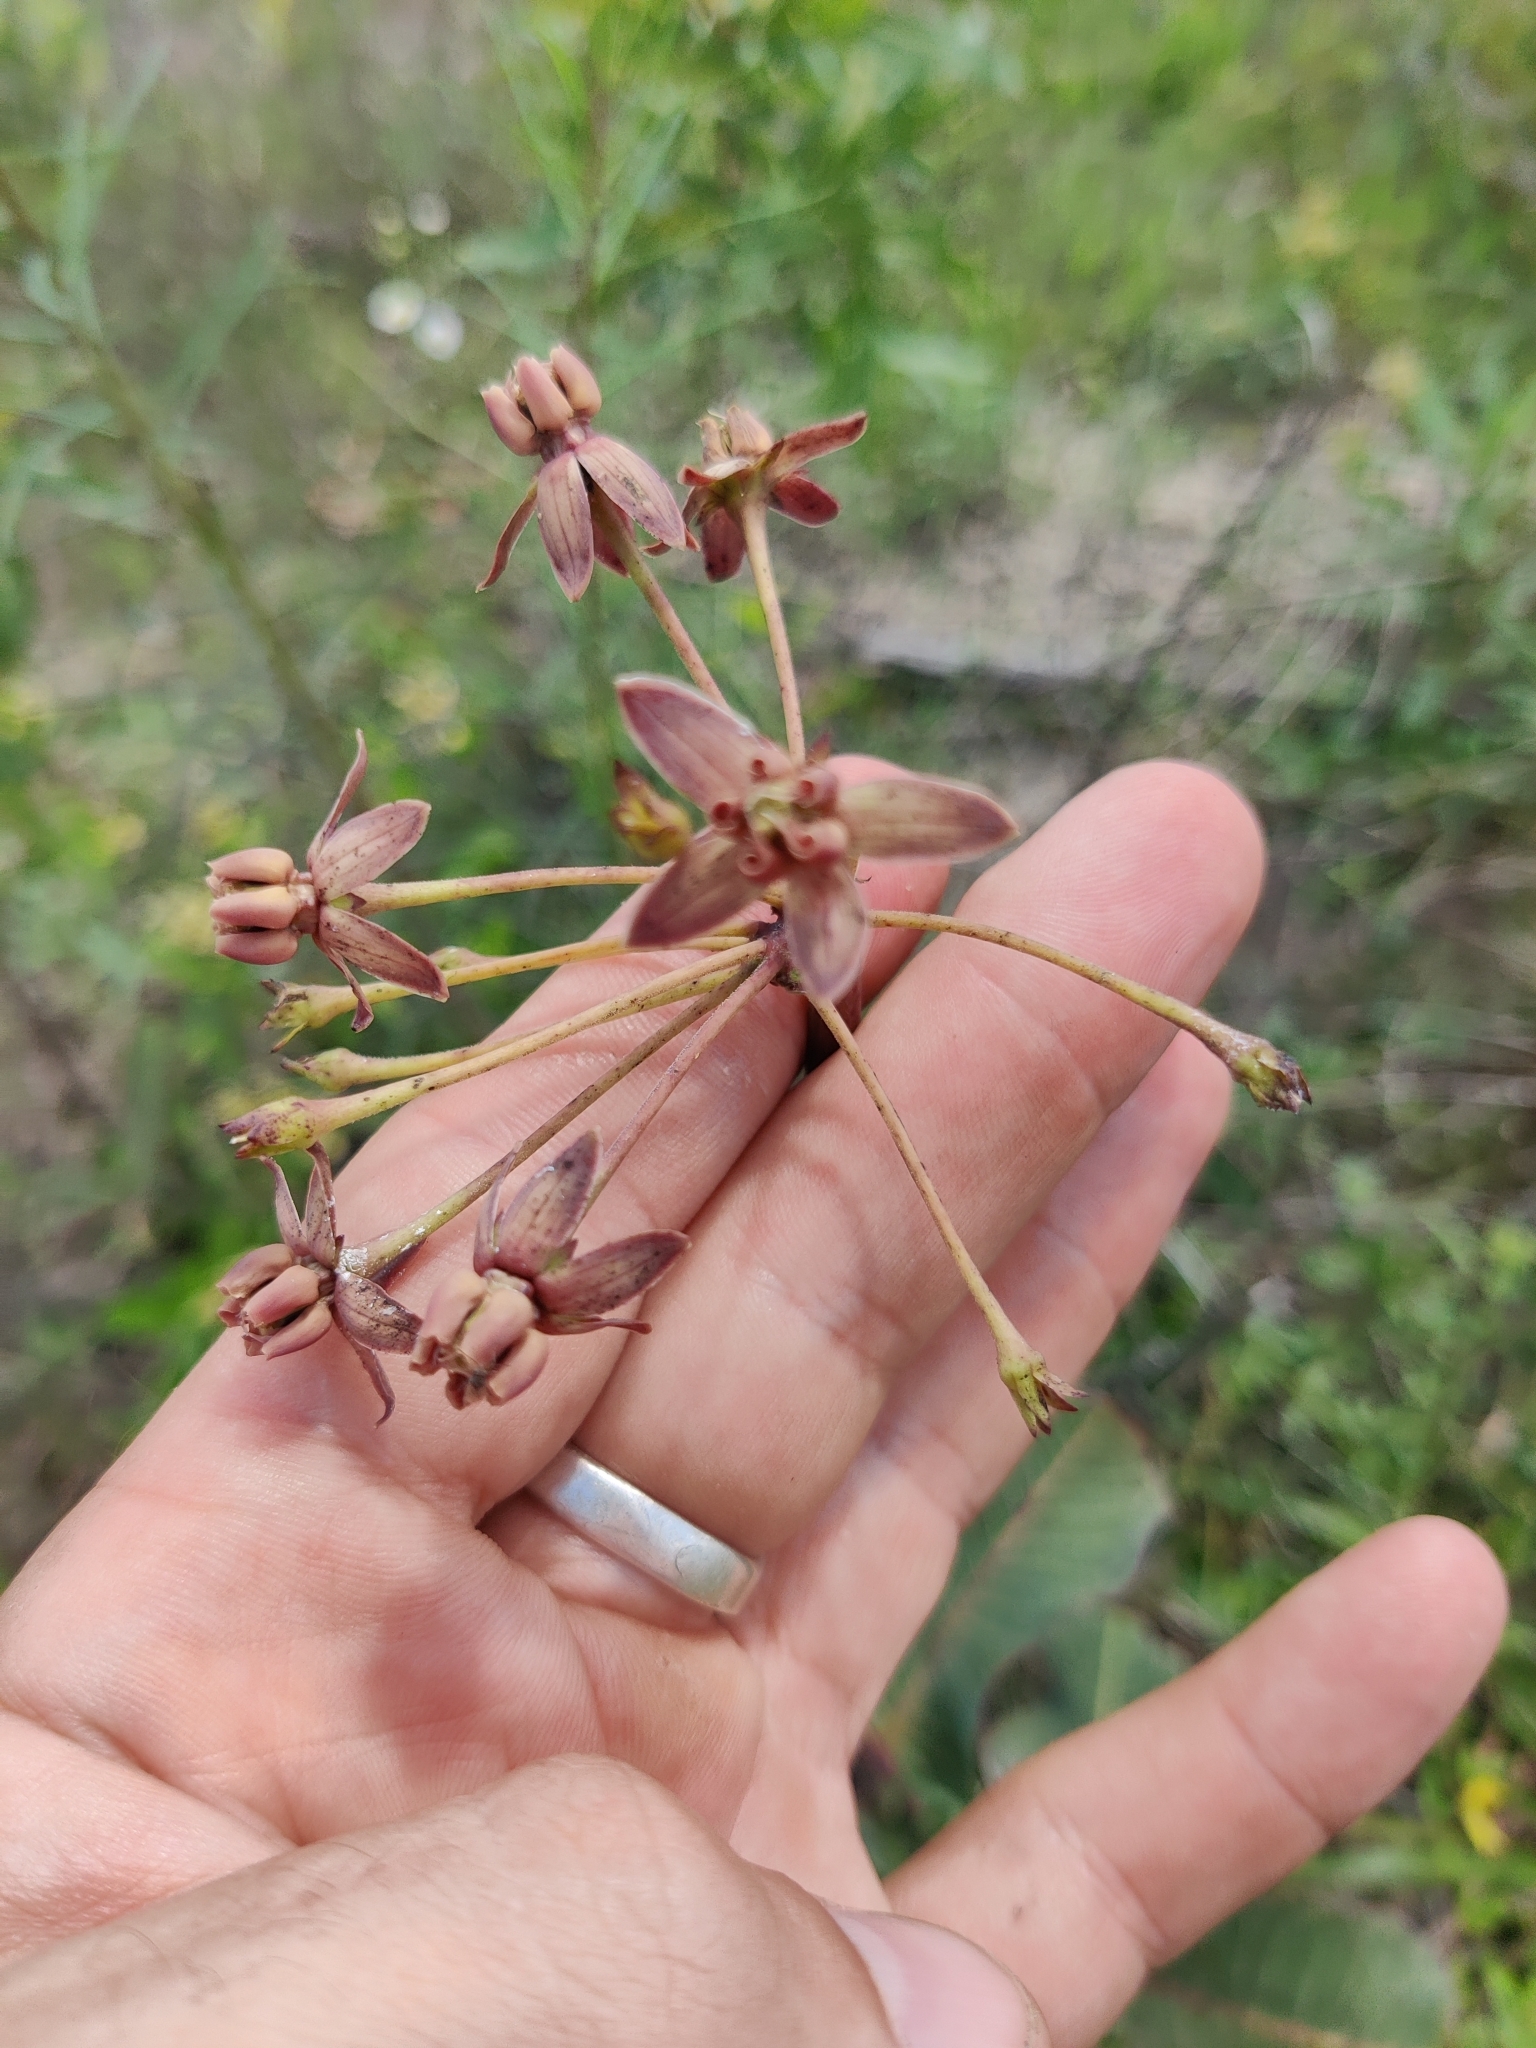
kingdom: Plantae
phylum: Tracheophyta
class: Magnoliopsida
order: Gentianales
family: Apocynaceae
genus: Asclepias
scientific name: Asclepias amplexicaulis
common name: Blunt-leaf milkweed
